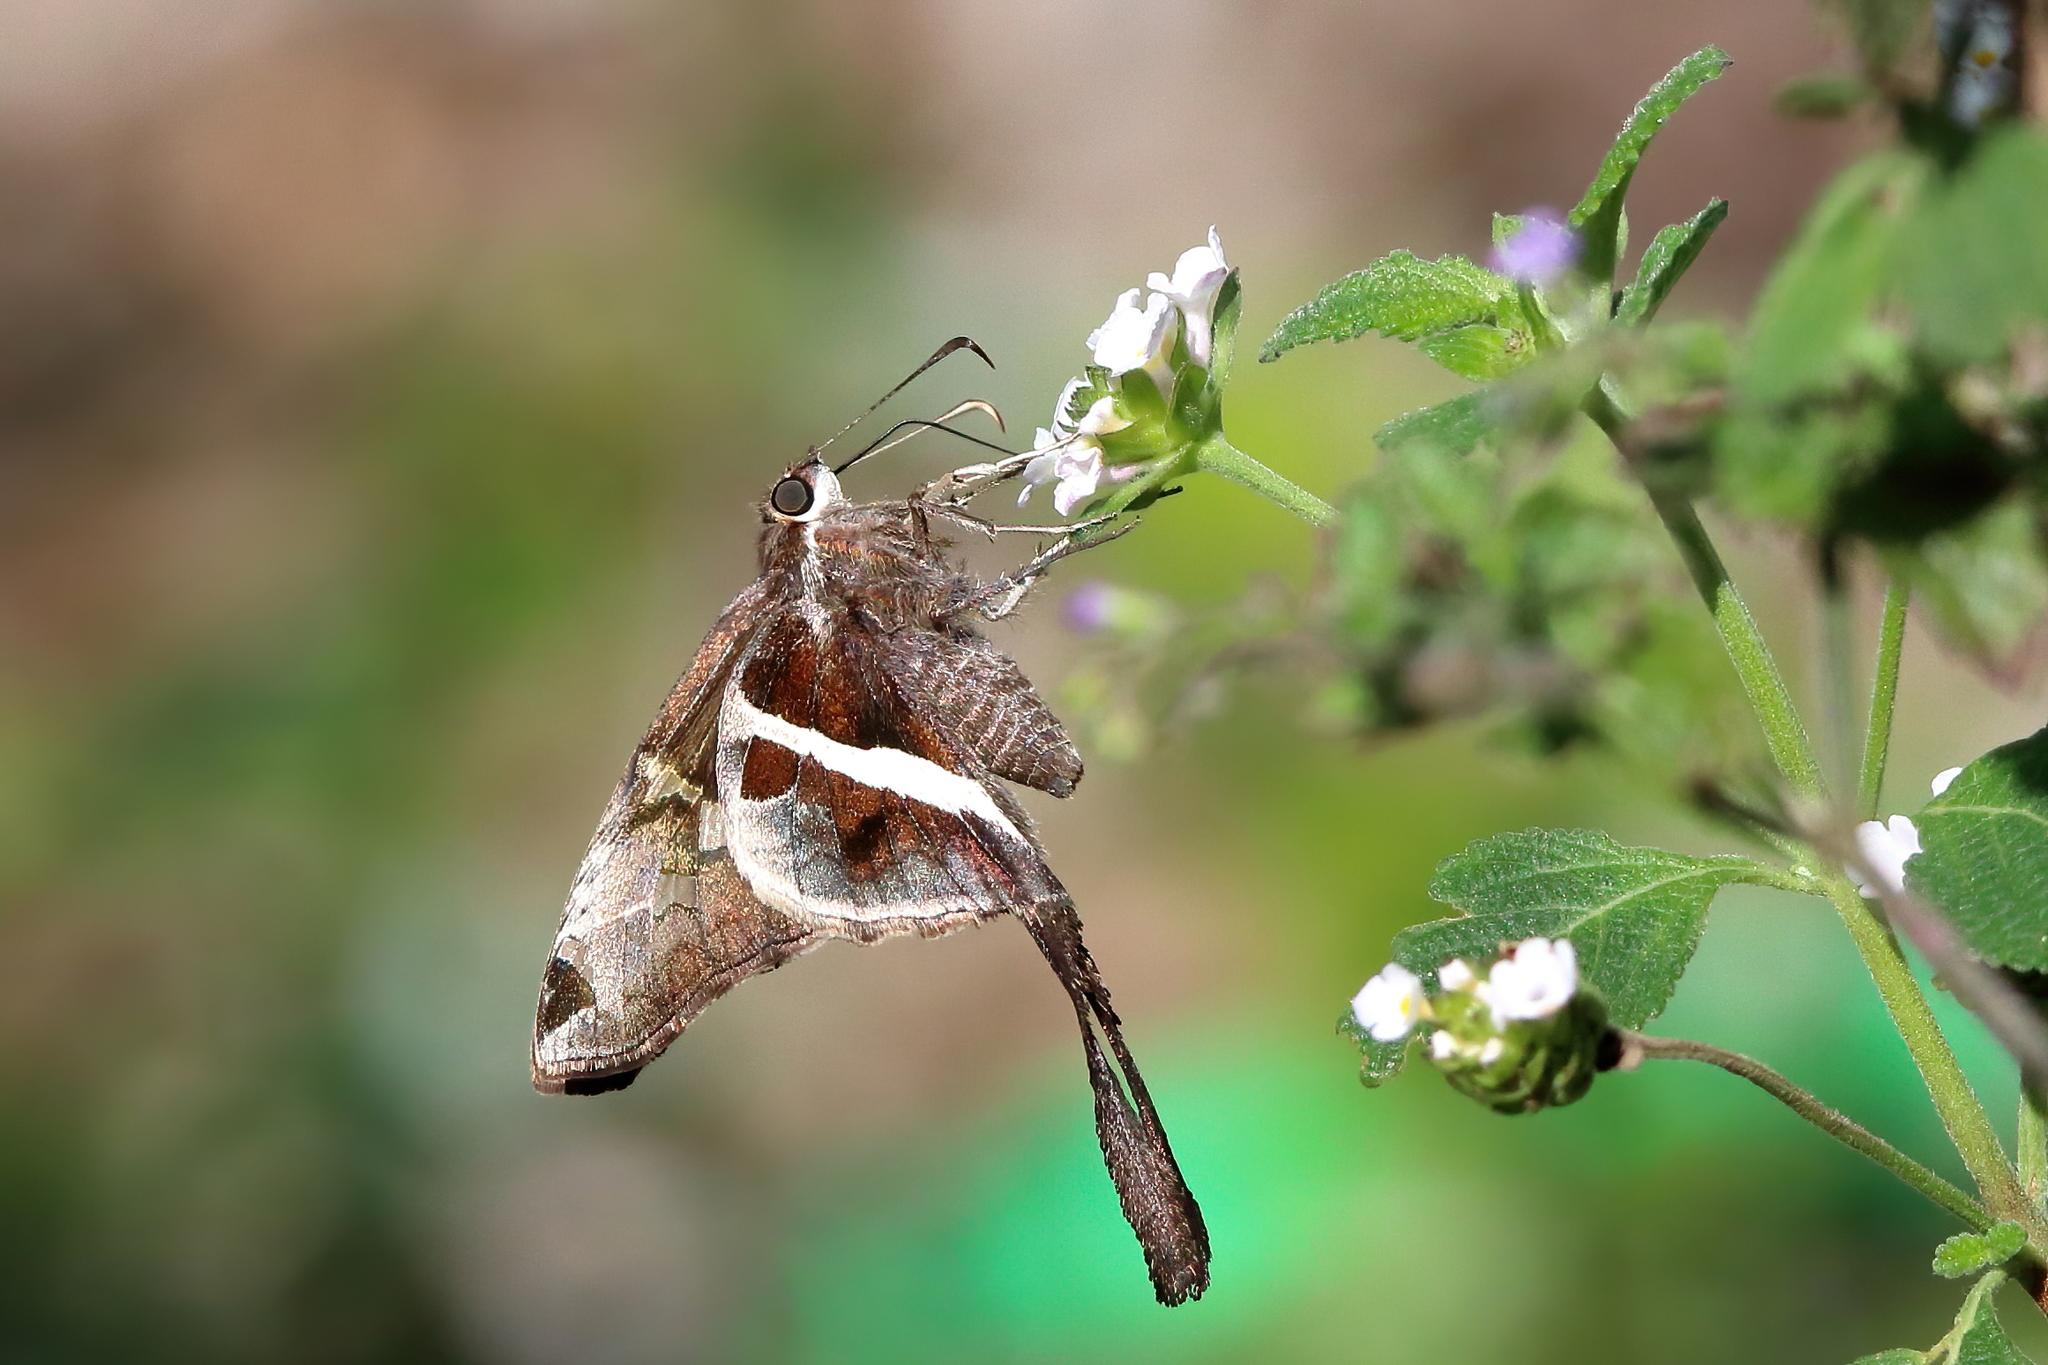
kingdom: Animalia
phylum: Arthropoda
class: Insecta
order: Lepidoptera
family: Hesperiidae
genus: Chioides
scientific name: Chioides catillus
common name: Silverbanded skipper
